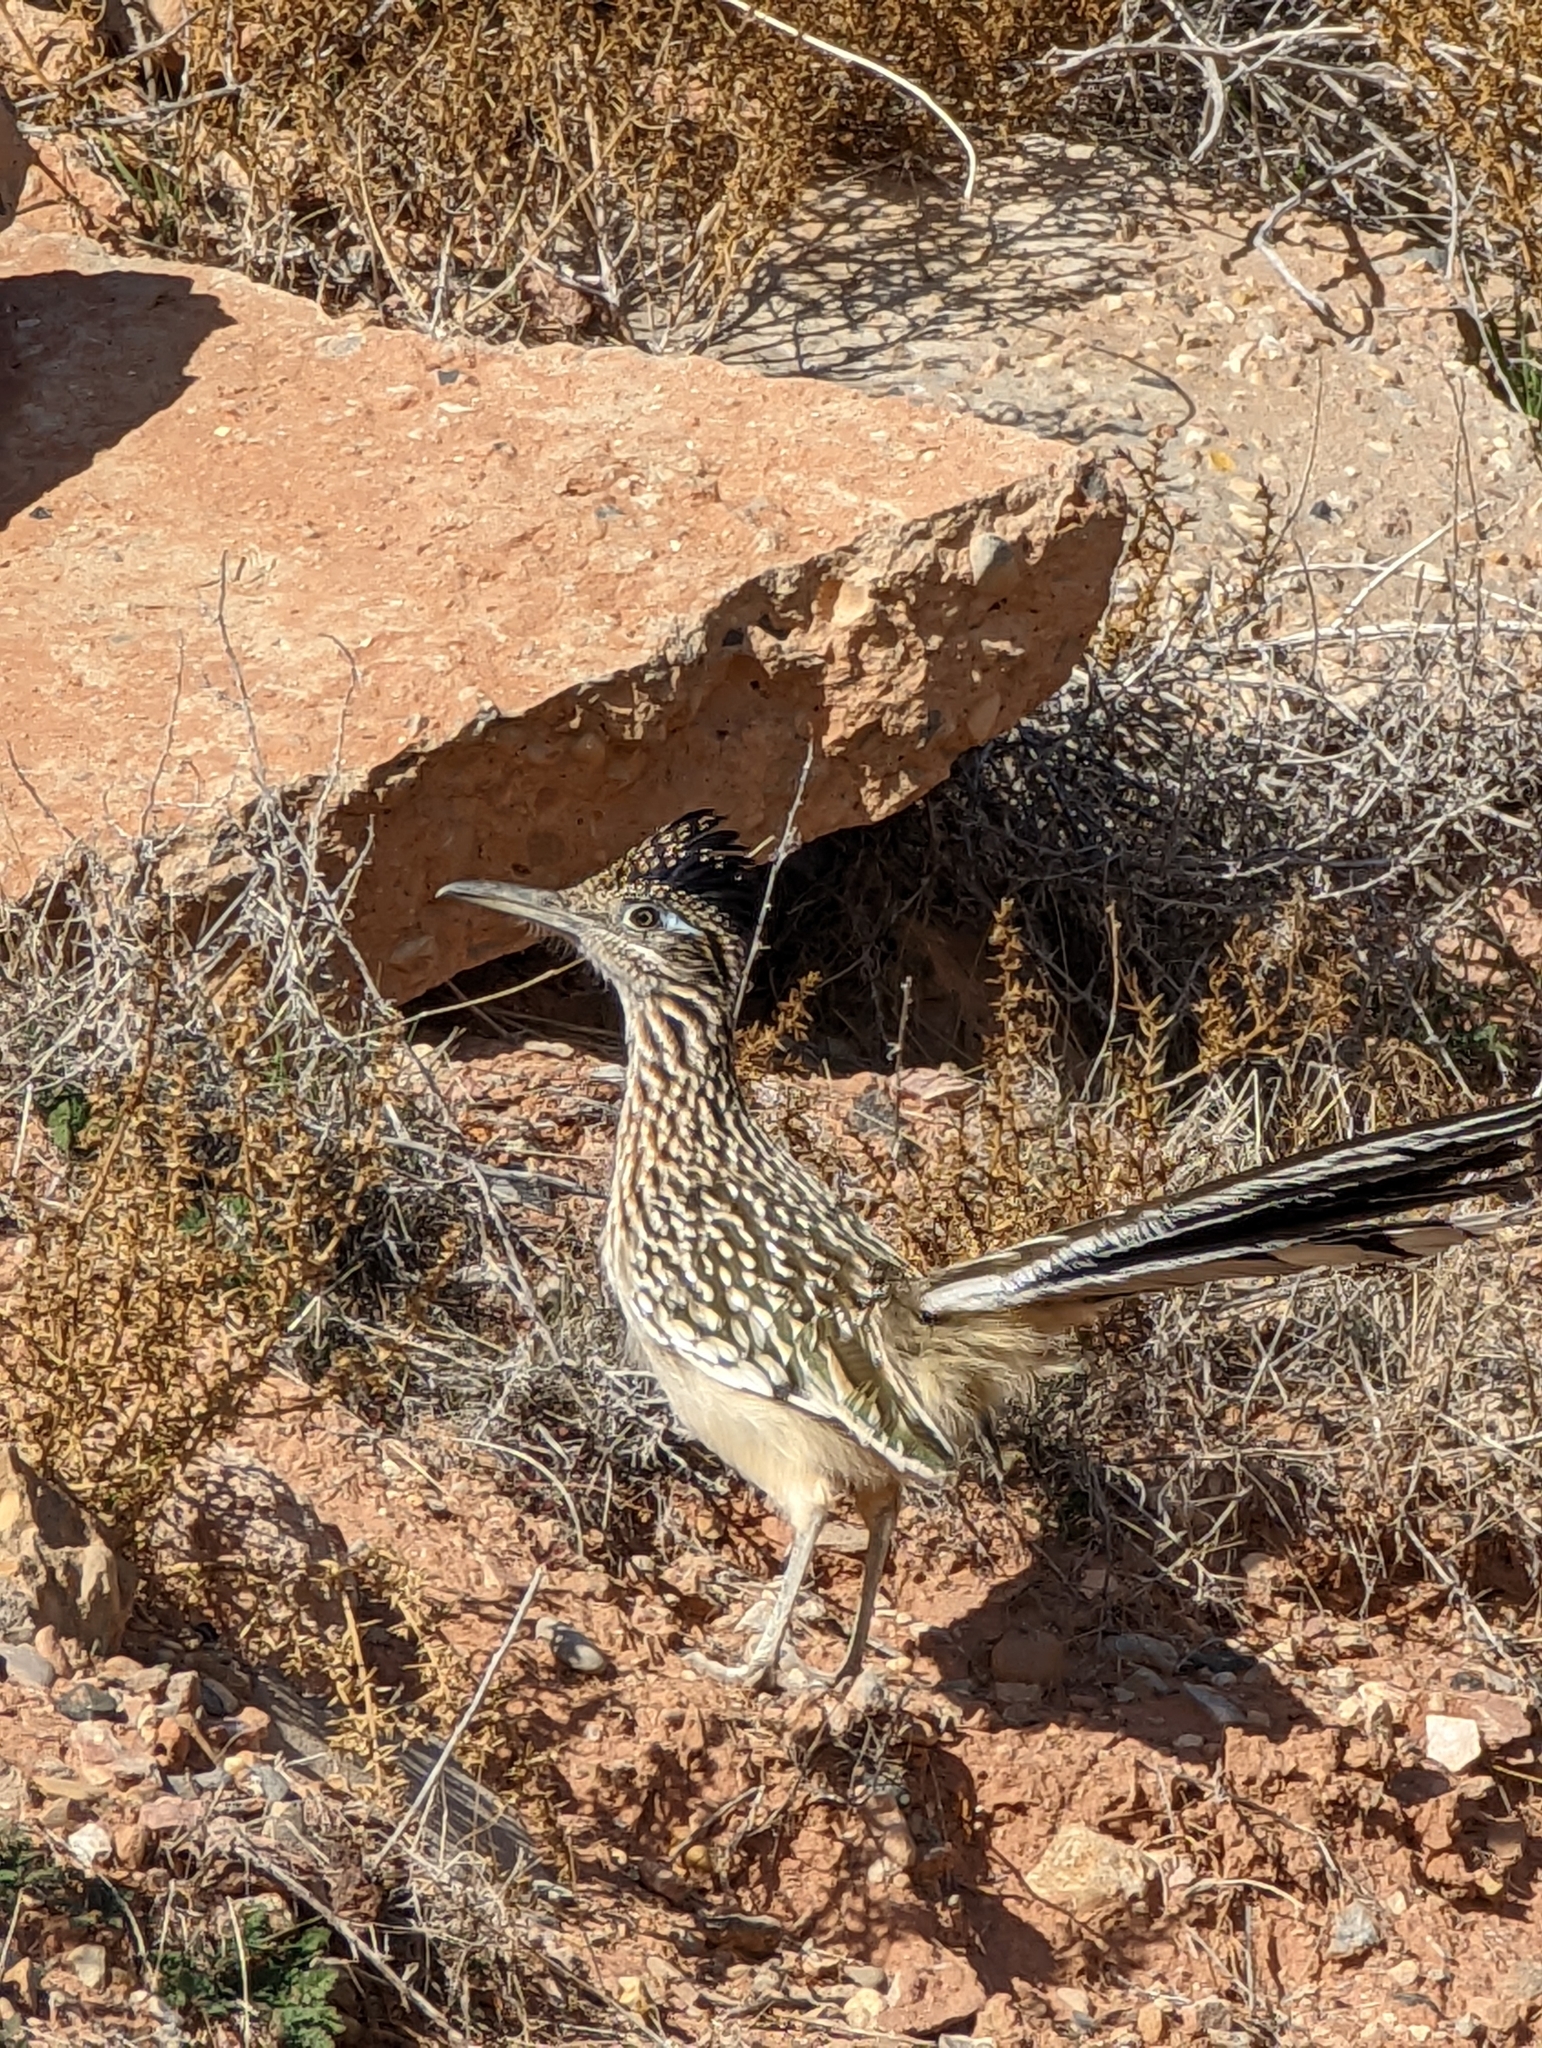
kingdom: Animalia
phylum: Chordata
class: Aves
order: Cuculiformes
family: Cuculidae
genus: Geococcyx
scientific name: Geococcyx californianus
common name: Greater roadrunner
